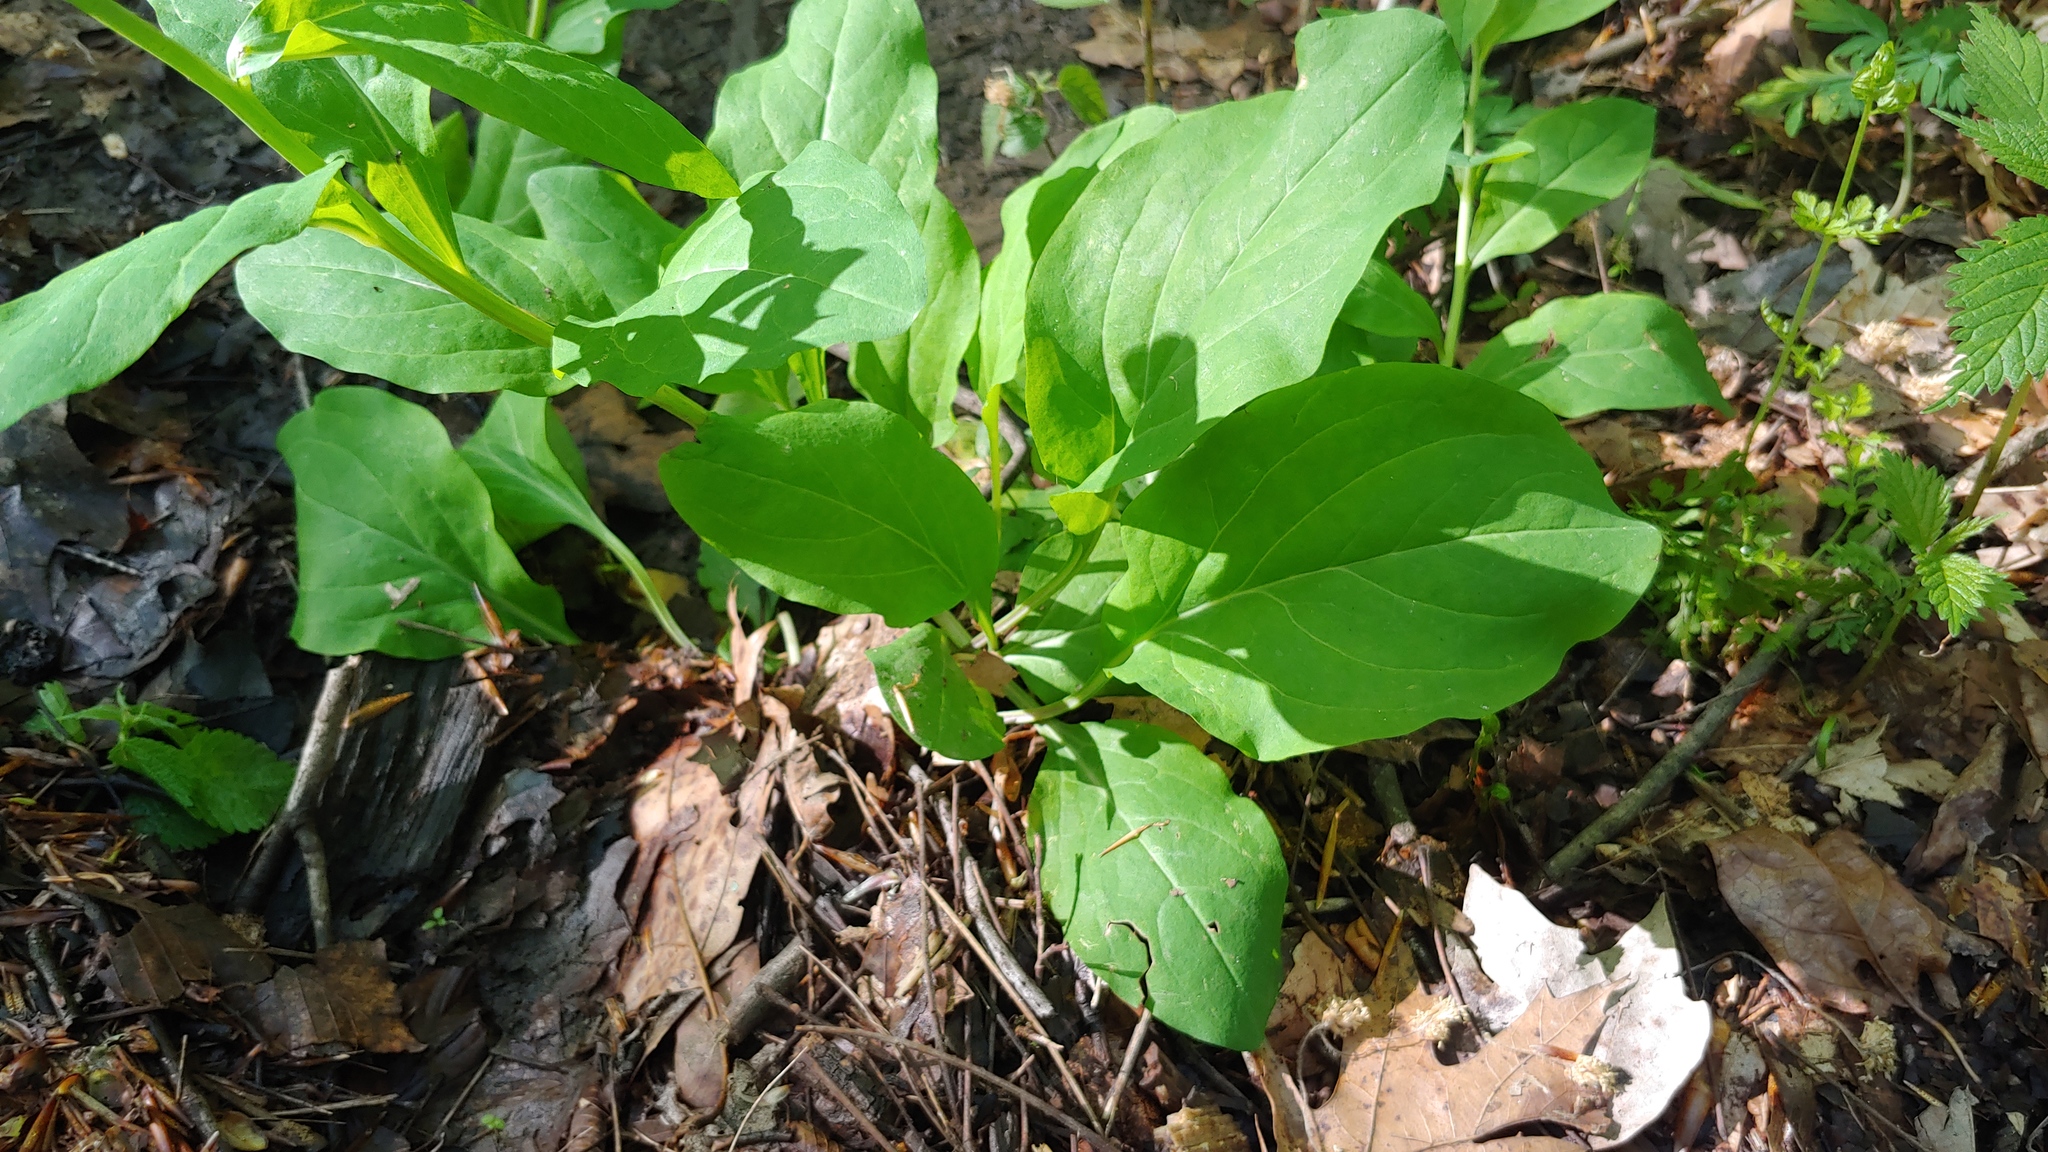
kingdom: Plantae
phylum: Tracheophyta
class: Magnoliopsida
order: Boraginales
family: Boraginaceae
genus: Mertensia
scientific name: Mertensia virginica
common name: Virginia bluebells
